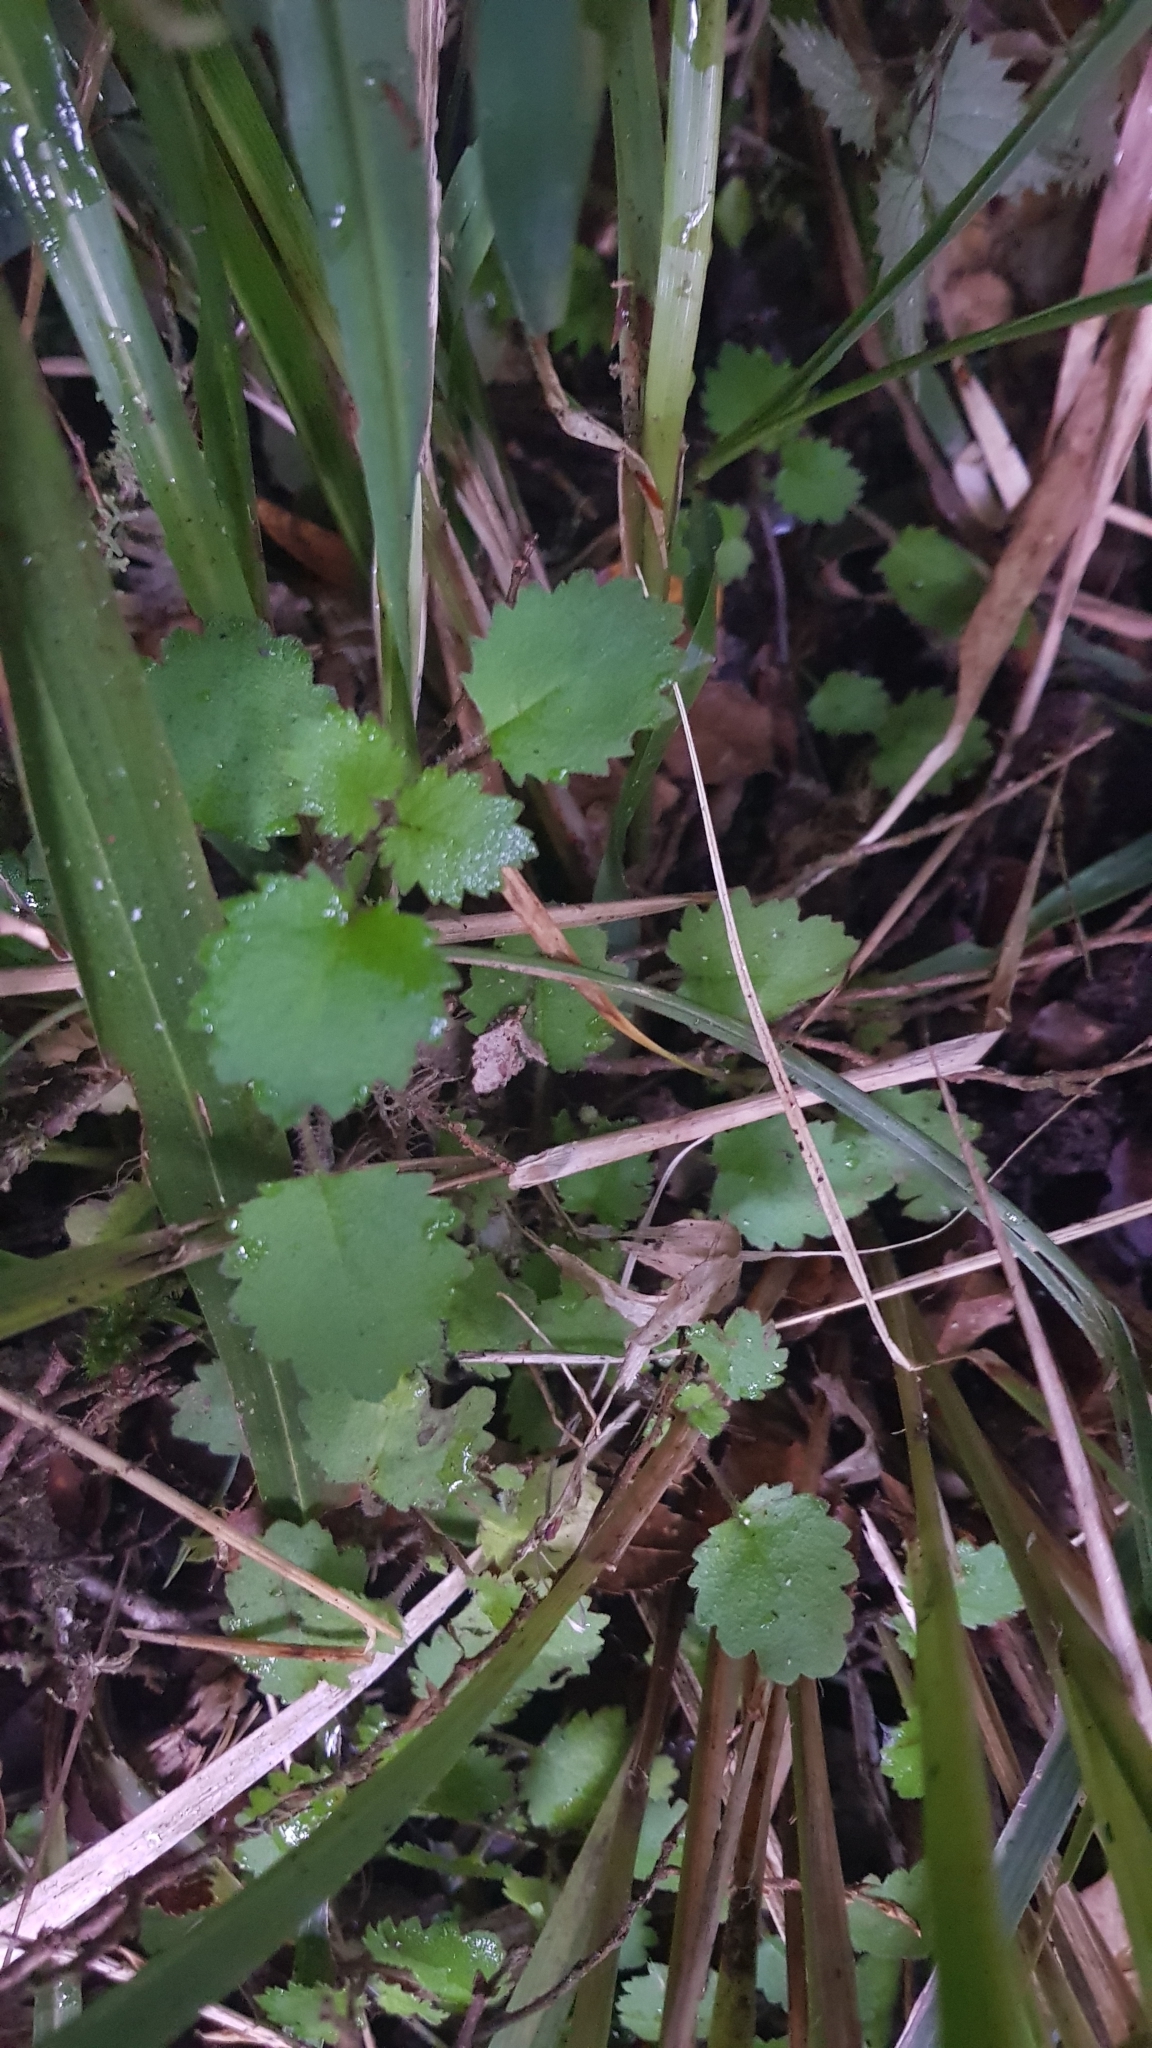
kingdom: Plantae
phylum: Tracheophyta
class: Magnoliopsida
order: Lamiales
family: Calceolariaceae
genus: Jovellana
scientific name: Jovellana repens
